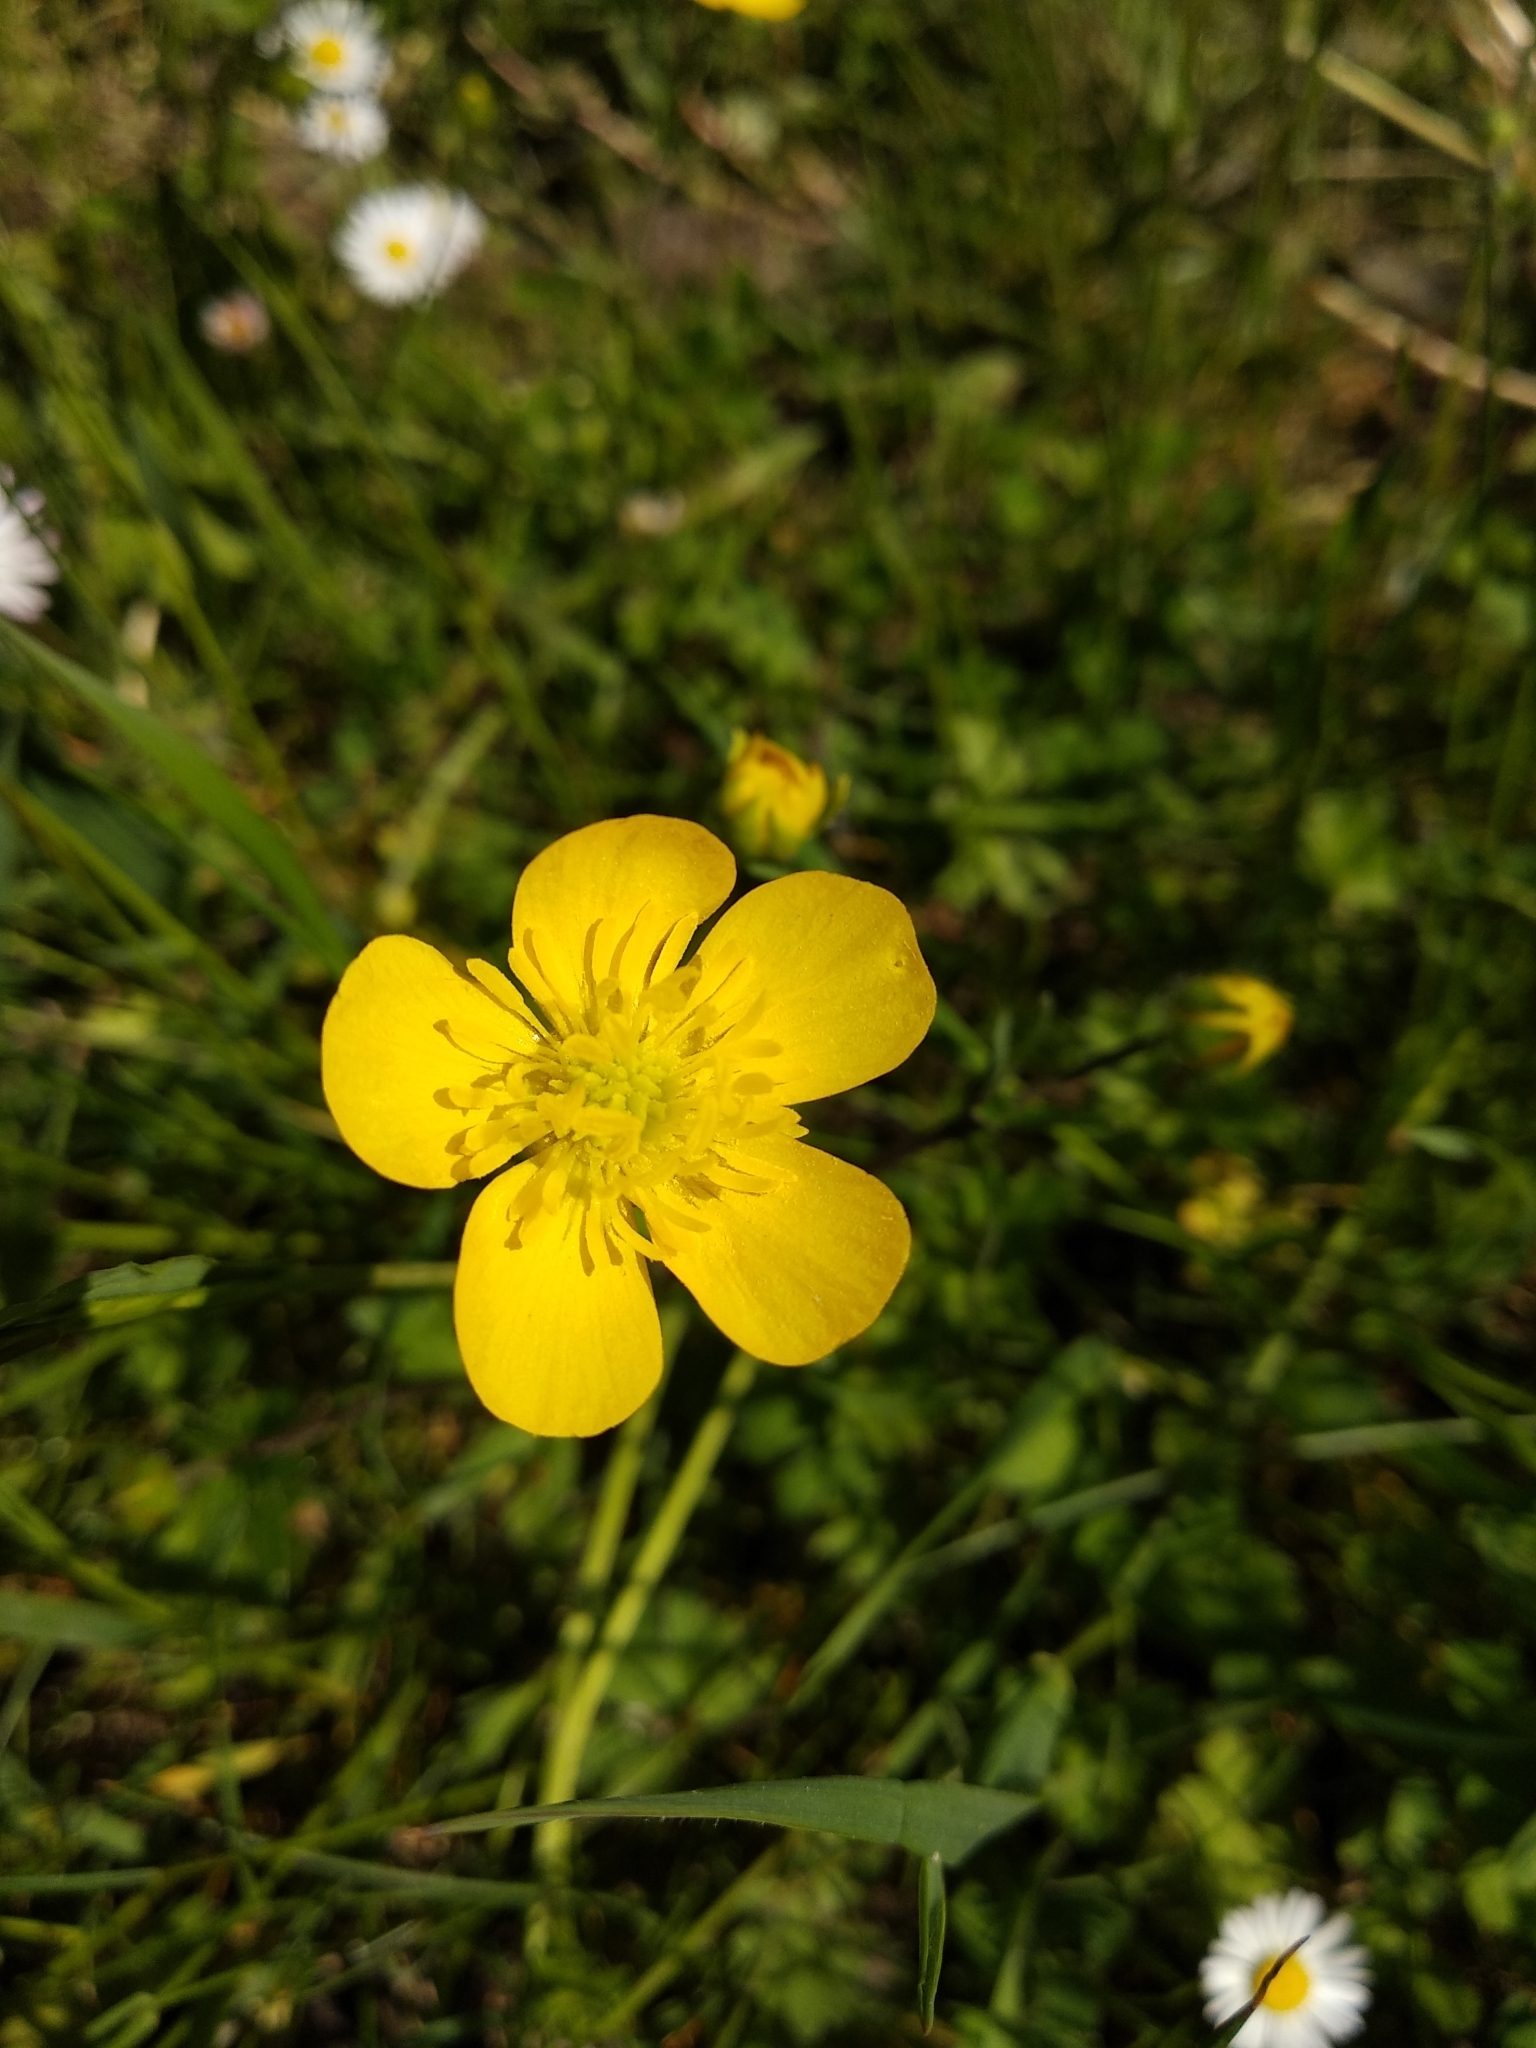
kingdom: Plantae
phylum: Tracheophyta
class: Magnoliopsida
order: Ranunculales
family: Ranunculaceae
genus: Ranunculus
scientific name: Ranunculus bulbosus
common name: Bulbous buttercup
